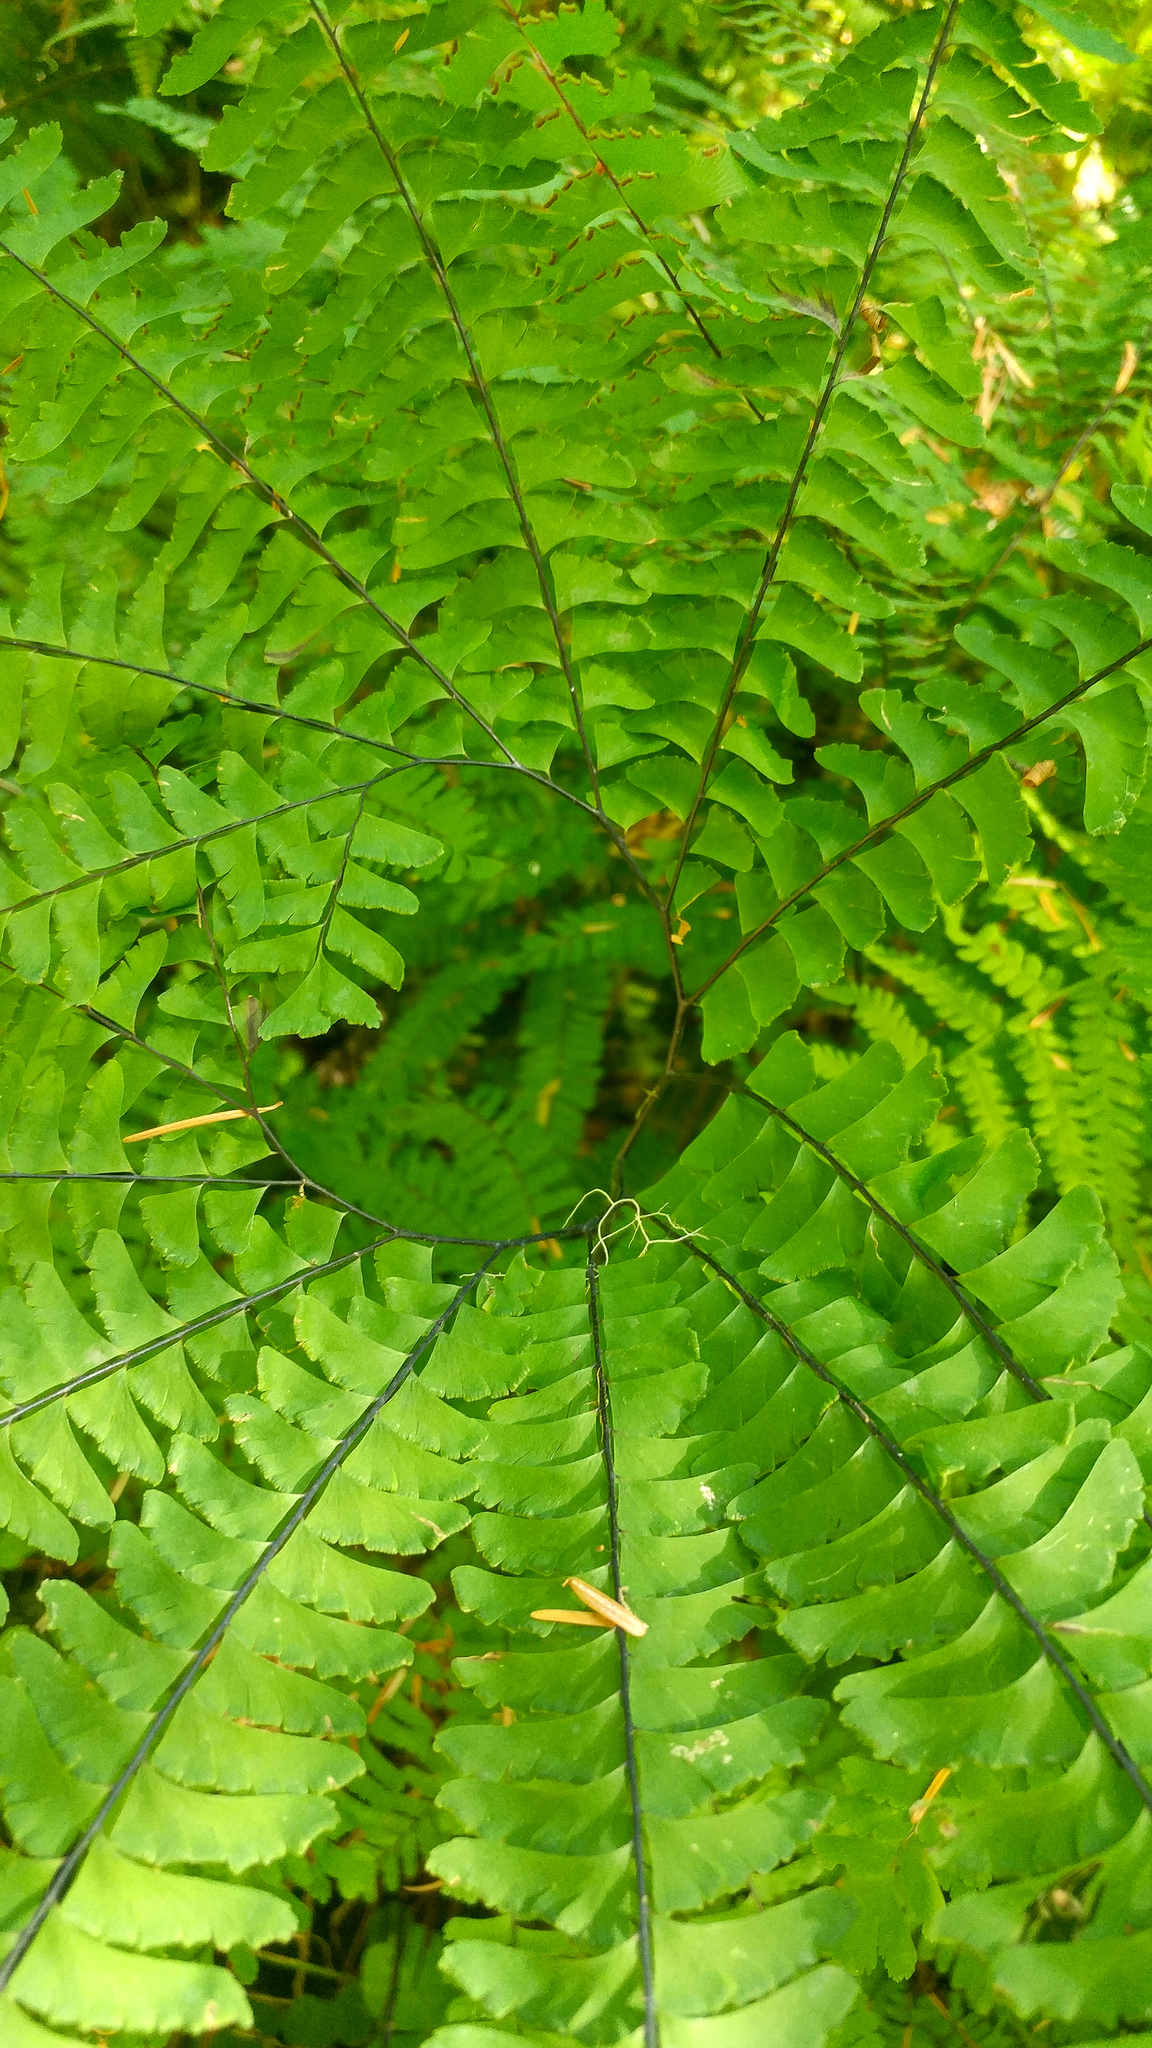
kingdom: Plantae
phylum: Tracheophyta
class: Polypodiopsida
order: Polypodiales
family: Pteridaceae
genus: Adiantum
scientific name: Adiantum aleuticum
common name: Aleutian maidenhair fern
